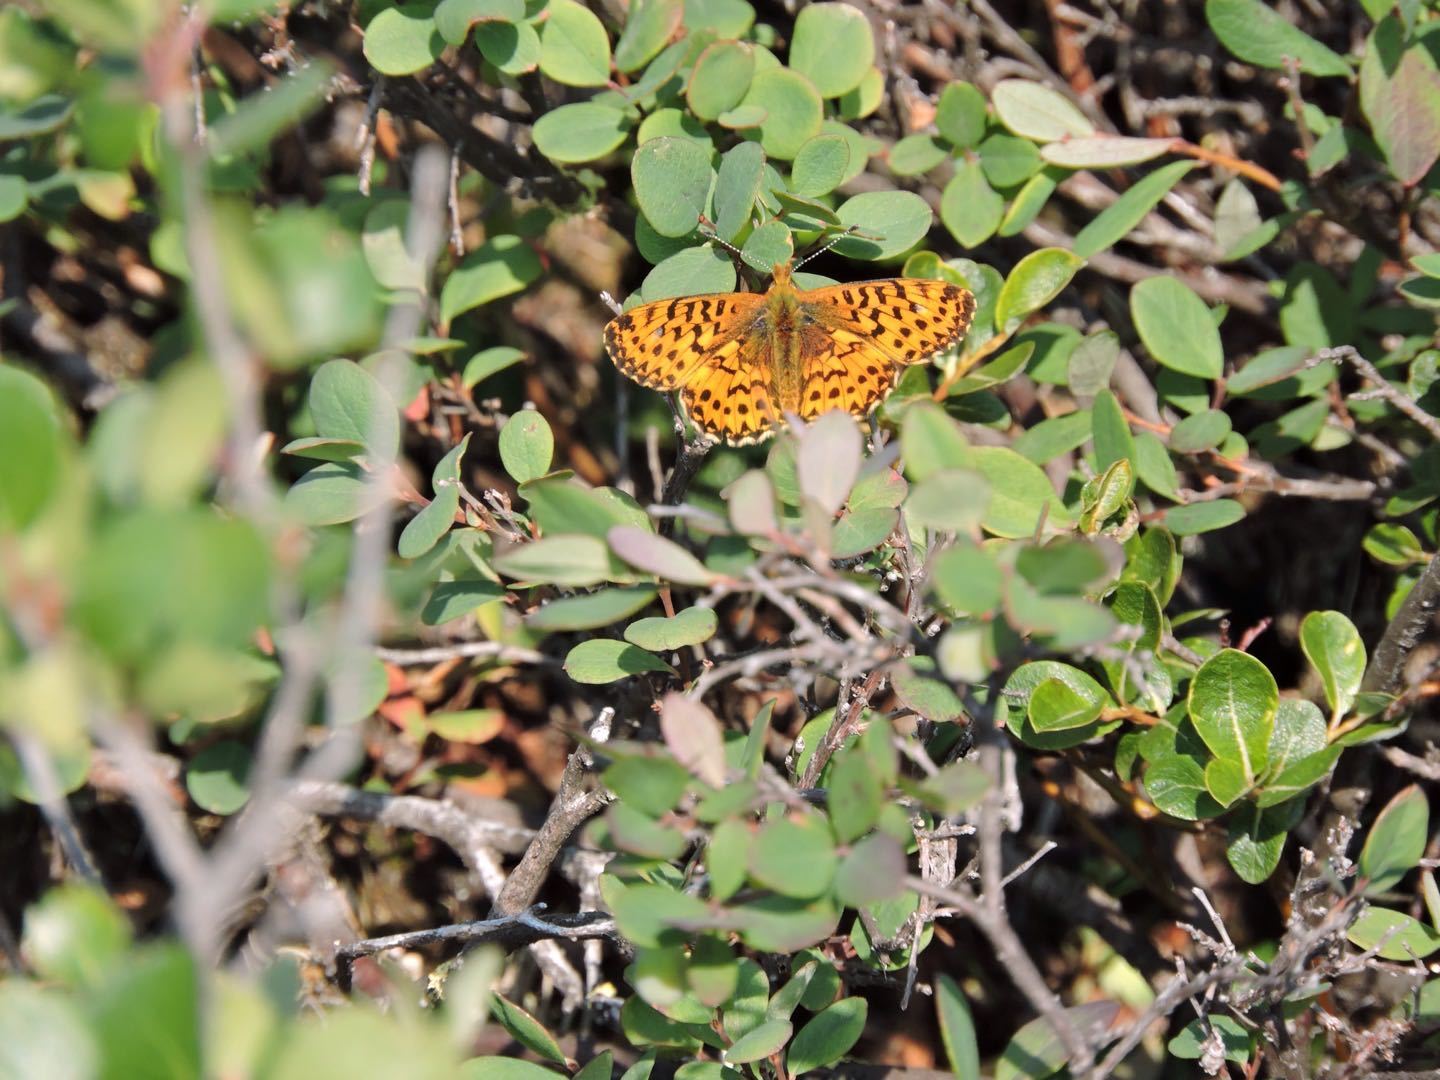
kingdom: Animalia
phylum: Arthropoda
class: Insecta
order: Lepidoptera
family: Nymphalidae
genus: Boloria
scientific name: Boloria chariclea
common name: Arctic fritillary
